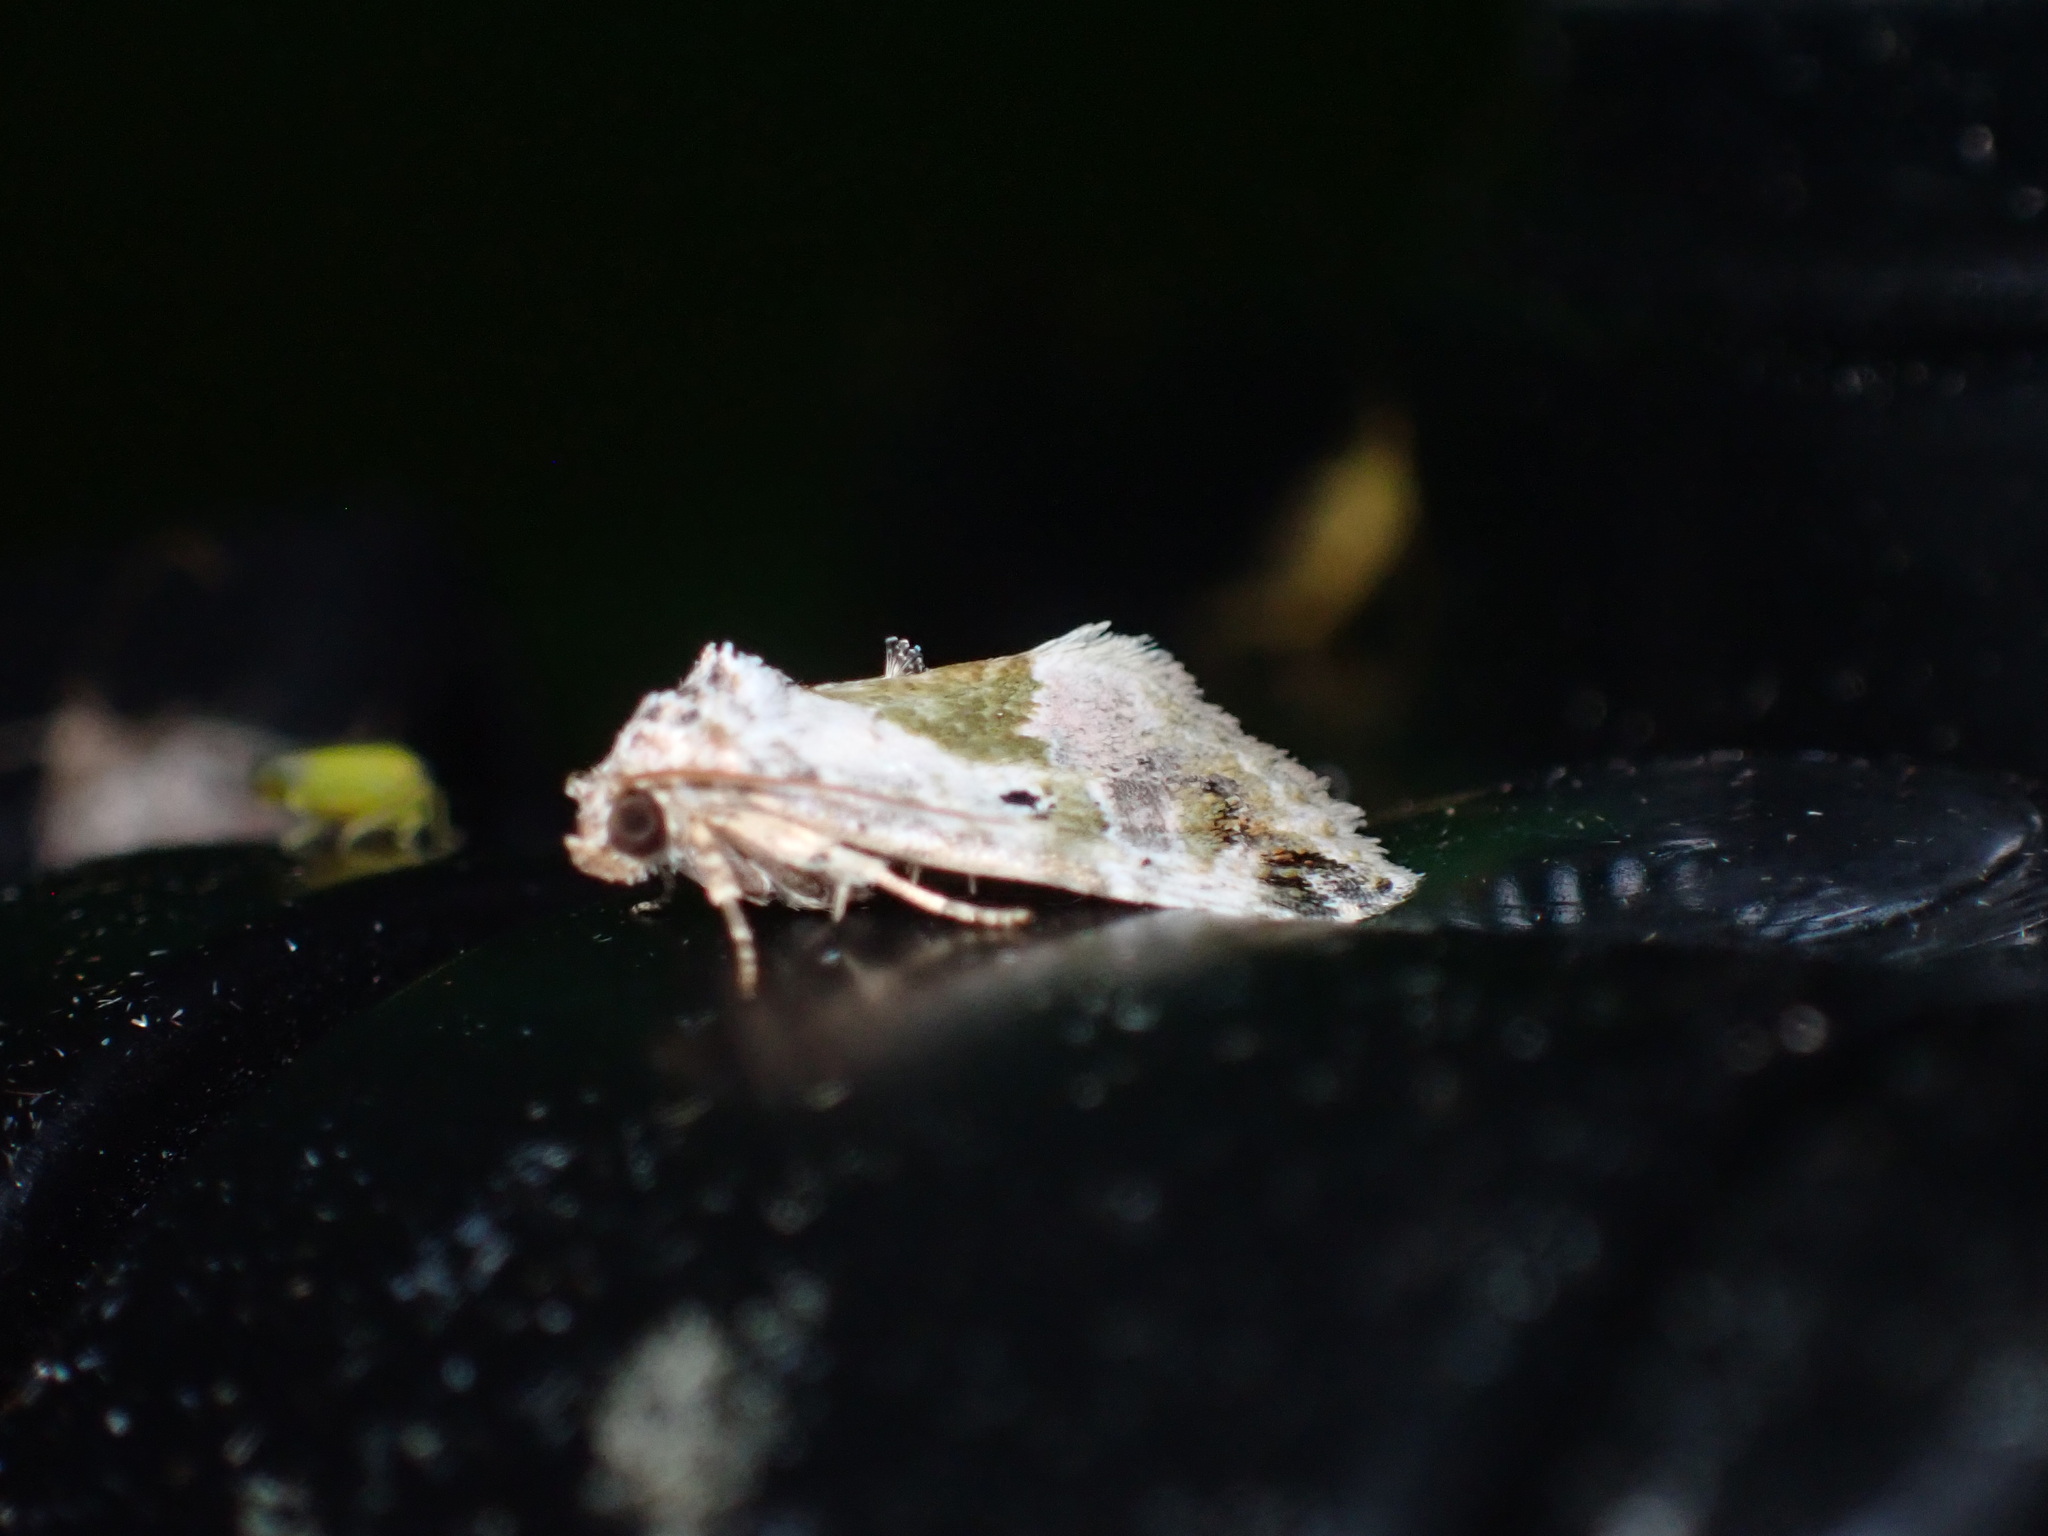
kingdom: Animalia
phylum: Arthropoda
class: Insecta
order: Lepidoptera
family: Noctuidae
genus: Maliattha
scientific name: Maliattha synochitis
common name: Black-dotted glyph
